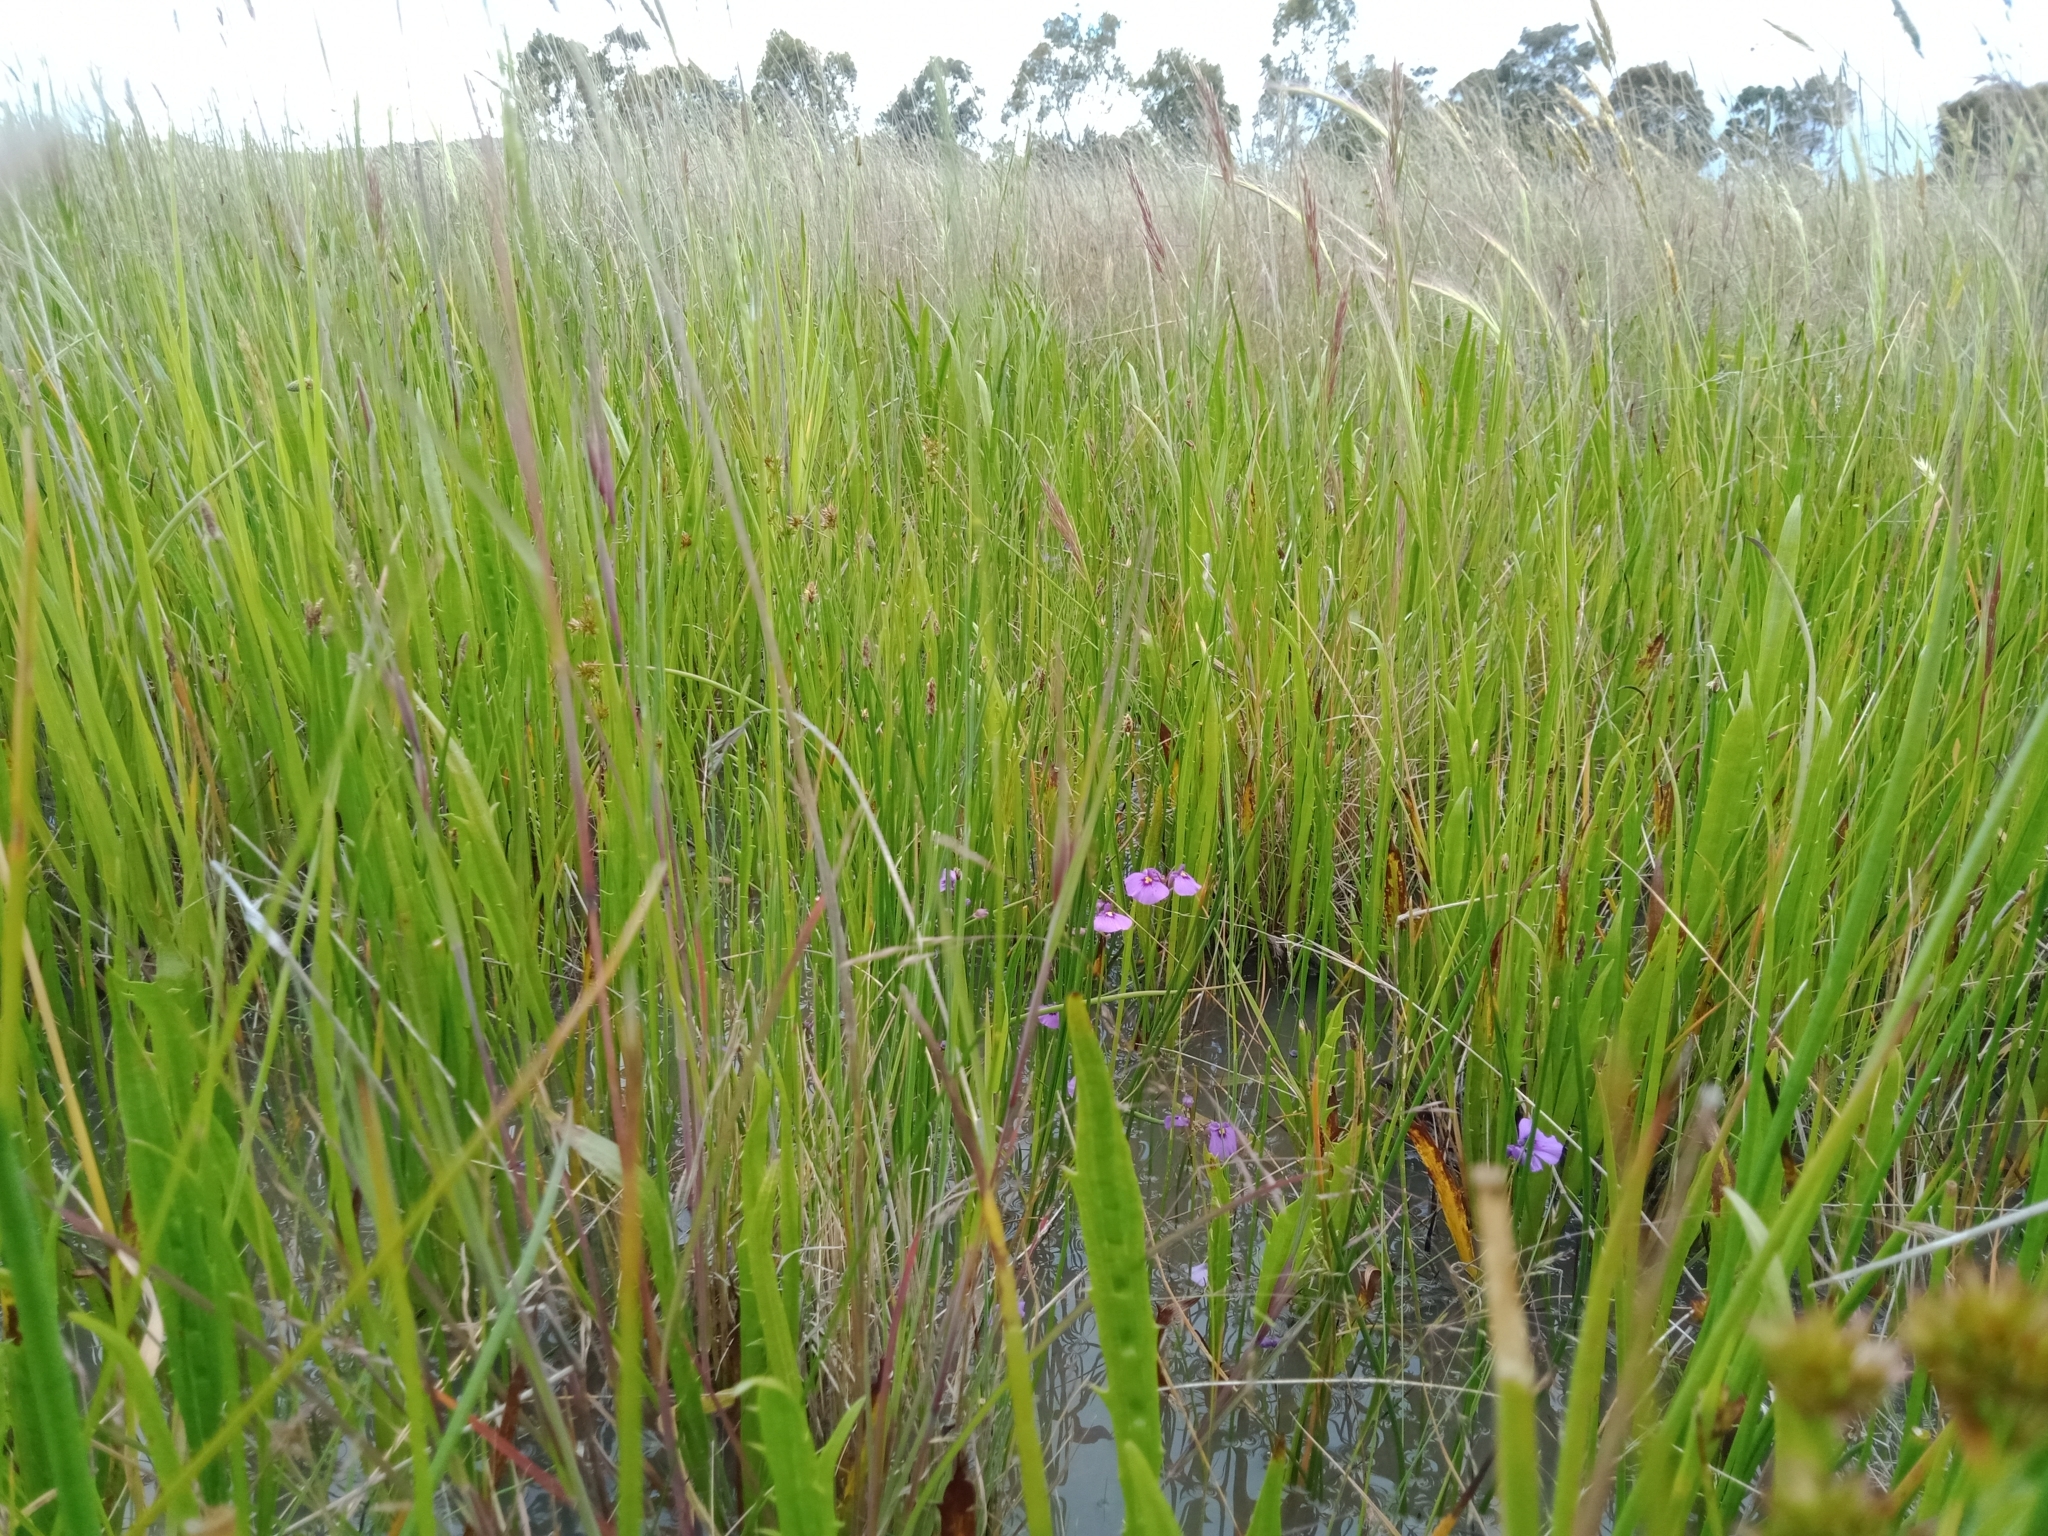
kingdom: Plantae
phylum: Tracheophyta
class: Magnoliopsida
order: Lamiales
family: Lentibulariaceae
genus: Utricularia
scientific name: Utricularia beaugleholei
